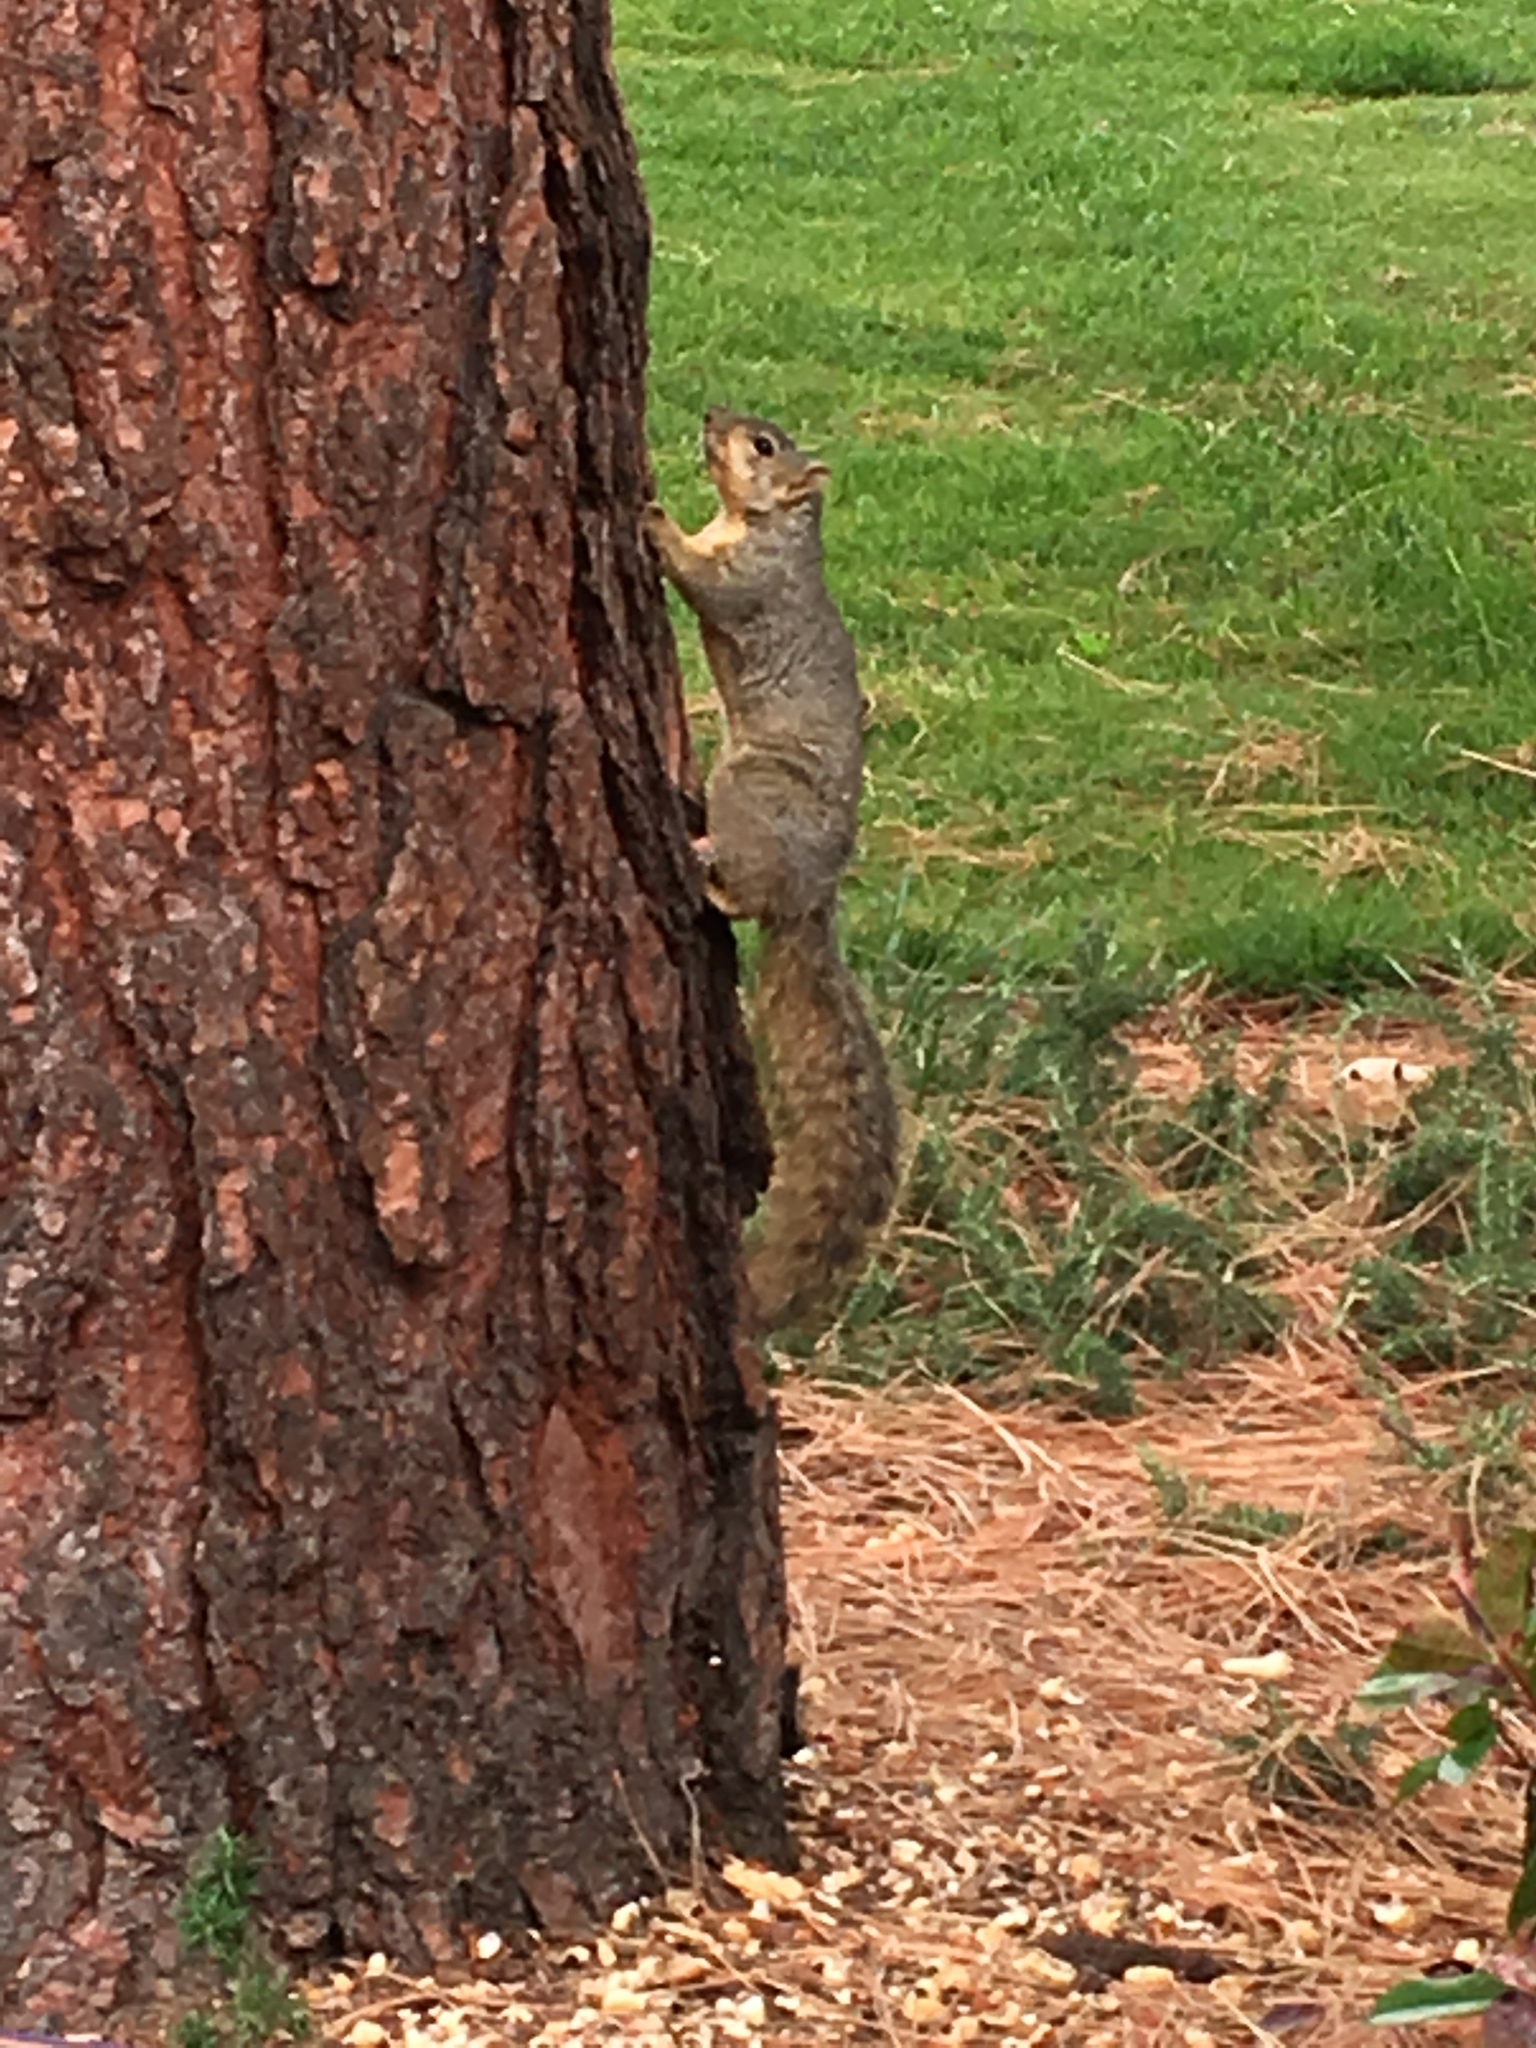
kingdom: Animalia
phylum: Chordata
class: Mammalia
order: Rodentia
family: Sciuridae
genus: Sciurus
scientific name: Sciurus niger
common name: Fox squirrel
